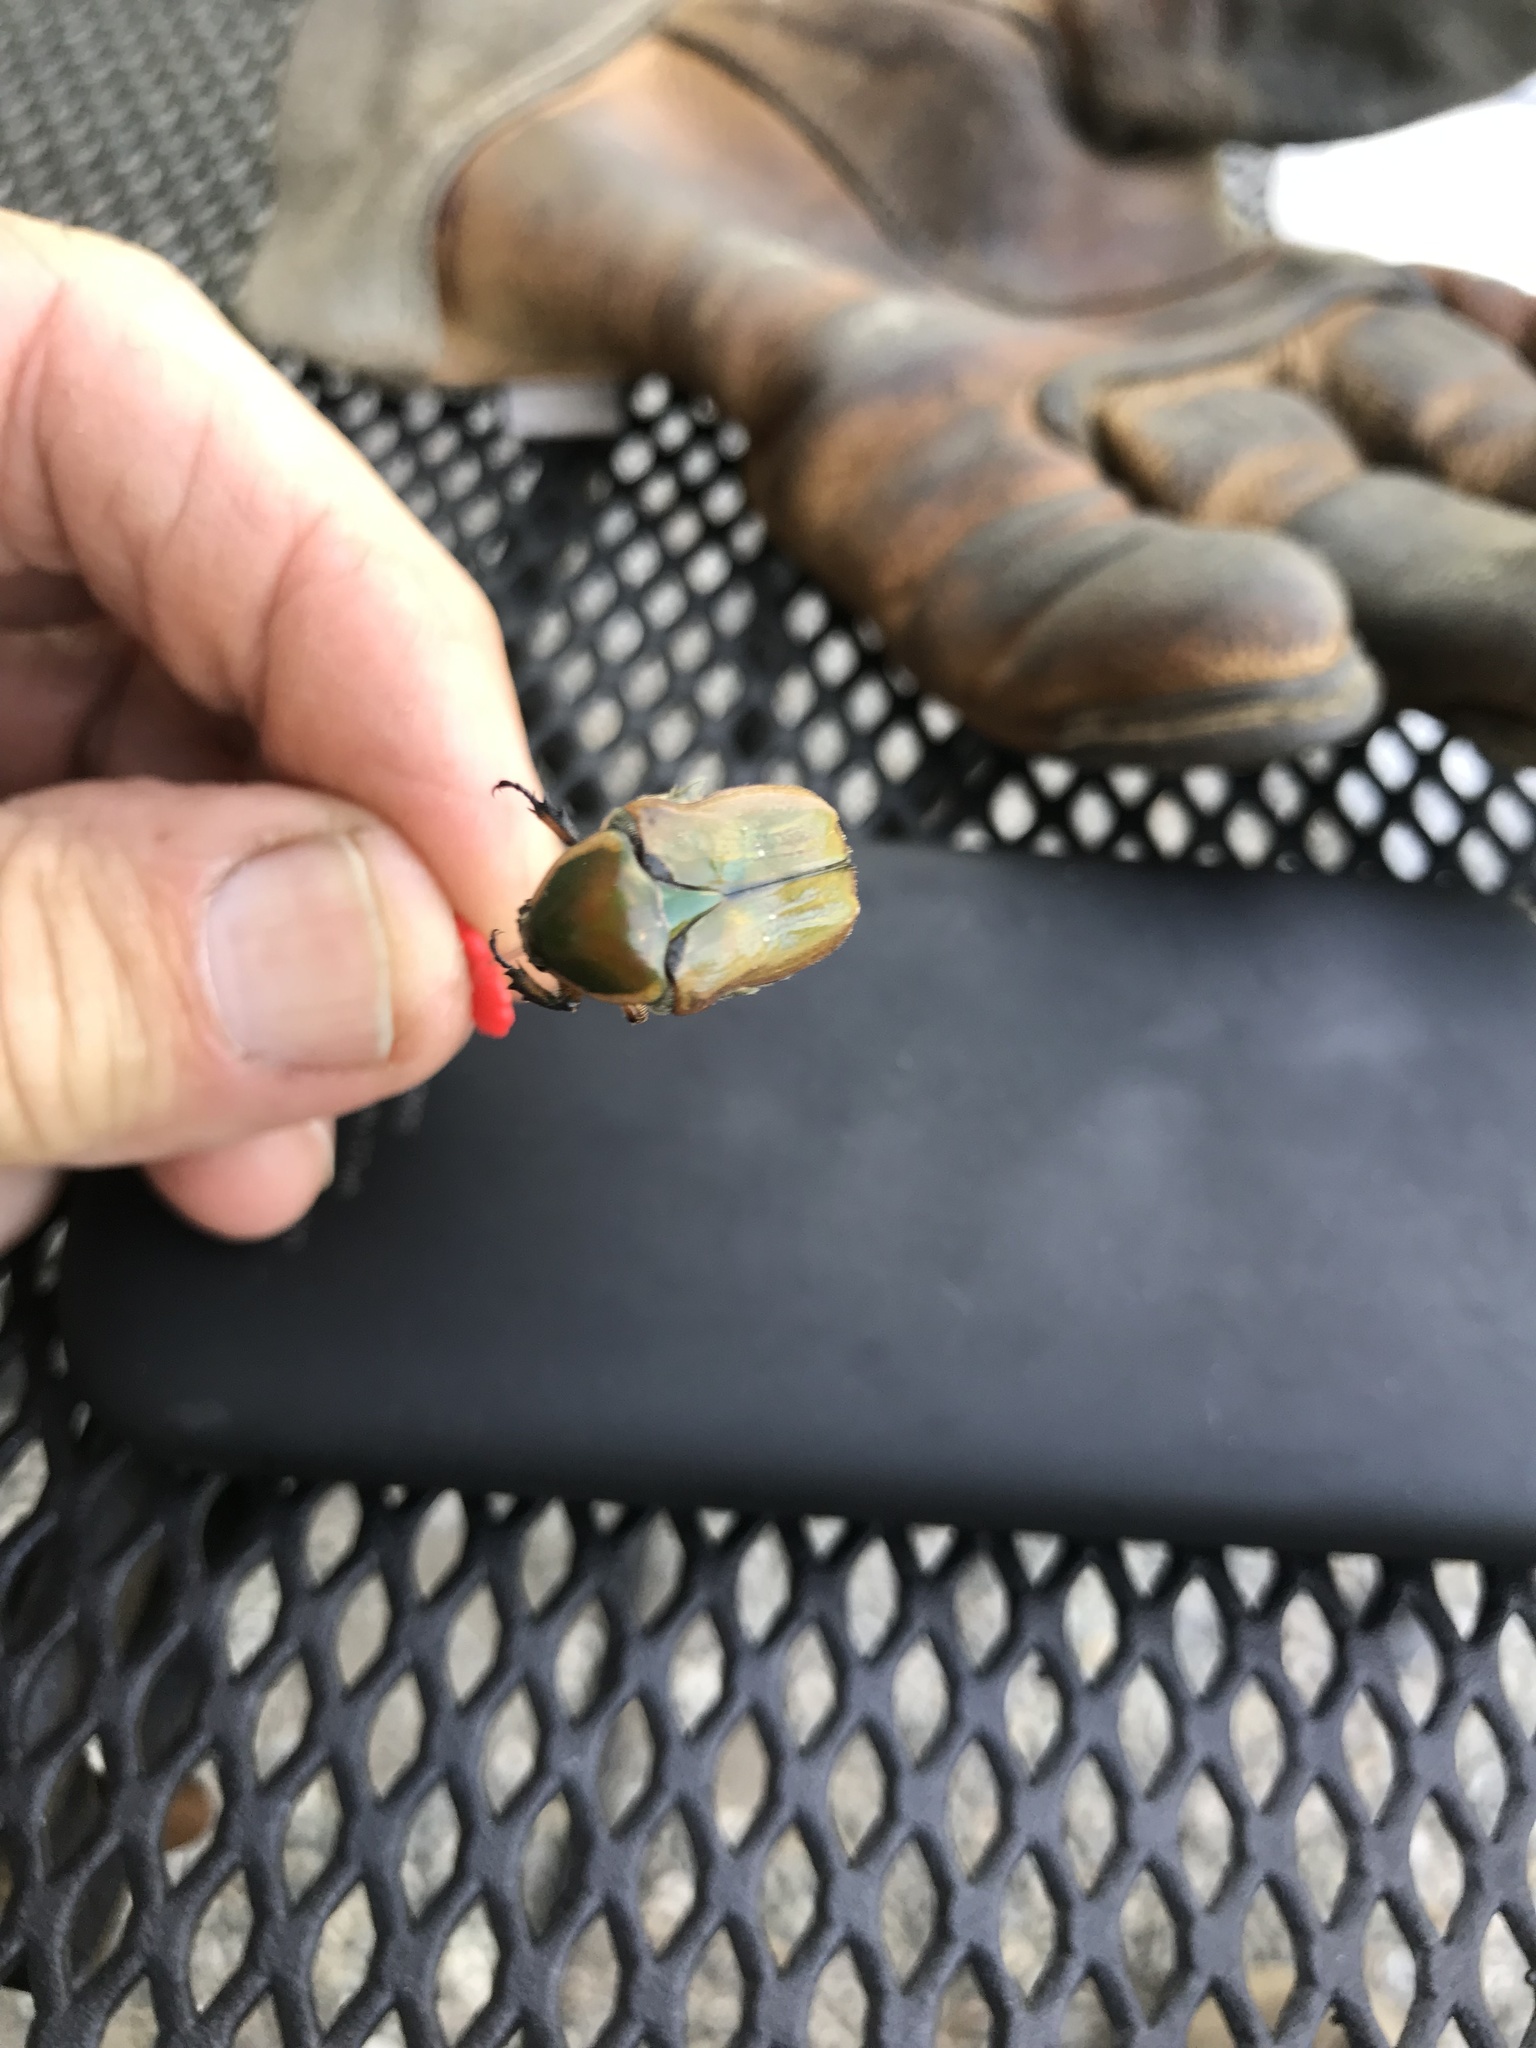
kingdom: Animalia
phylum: Arthropoda
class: Insecta
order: Coleoptera
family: Scarabaeidae
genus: Euphoria
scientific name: Euphoria fulgida
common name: Emerald euphoria
